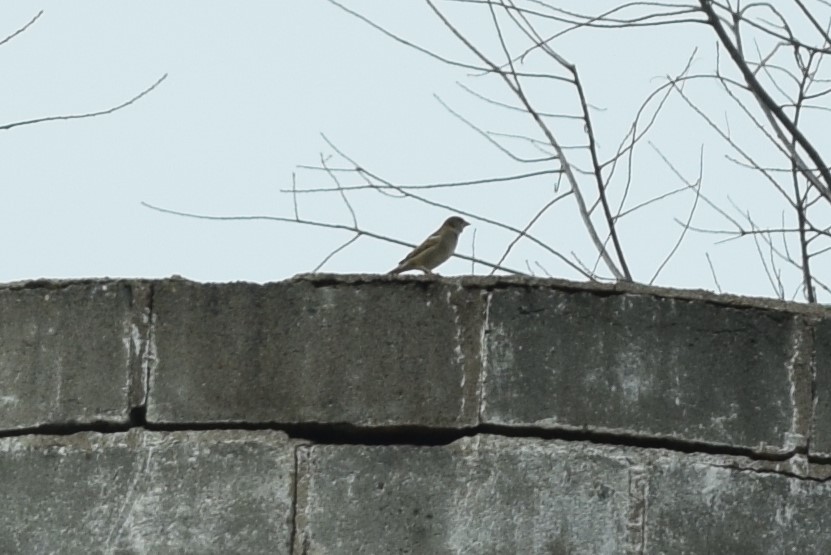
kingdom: Animalia
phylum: Chordata
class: Aves
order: Passeriformes
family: Passeridae
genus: Passer
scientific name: Passer domesticus
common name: House sparrow
